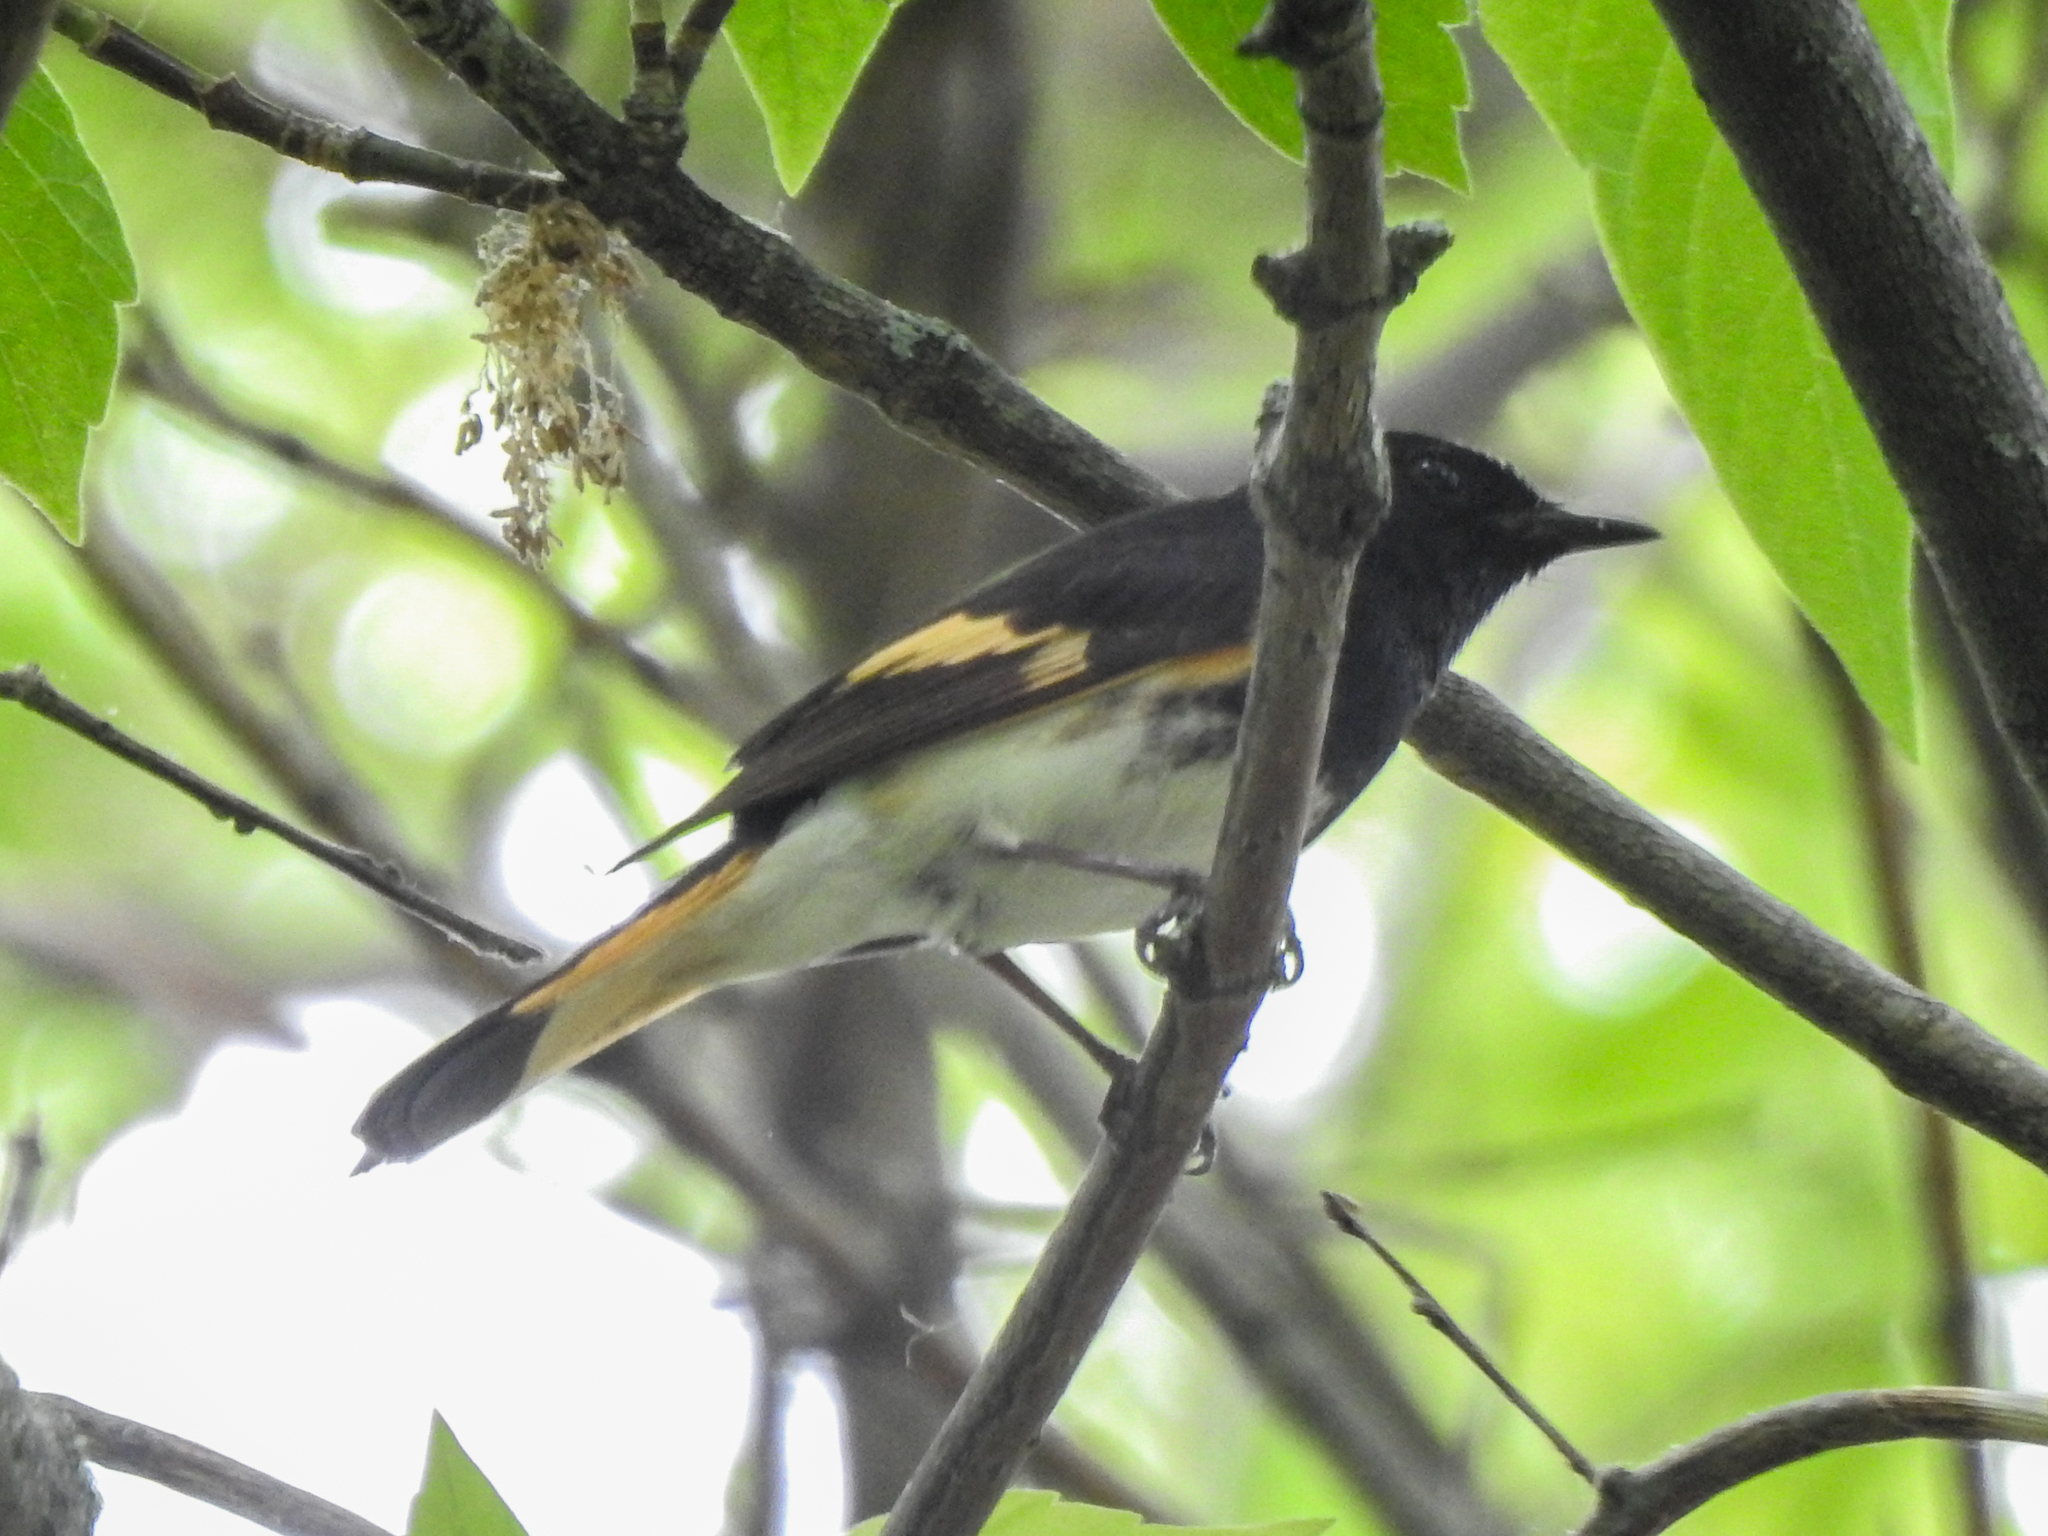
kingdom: Animalia
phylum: Chordata
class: Aves
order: Passeriformes
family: Parulidae
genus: Setophaga
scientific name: Setophaga ruticilla
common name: American redstart
